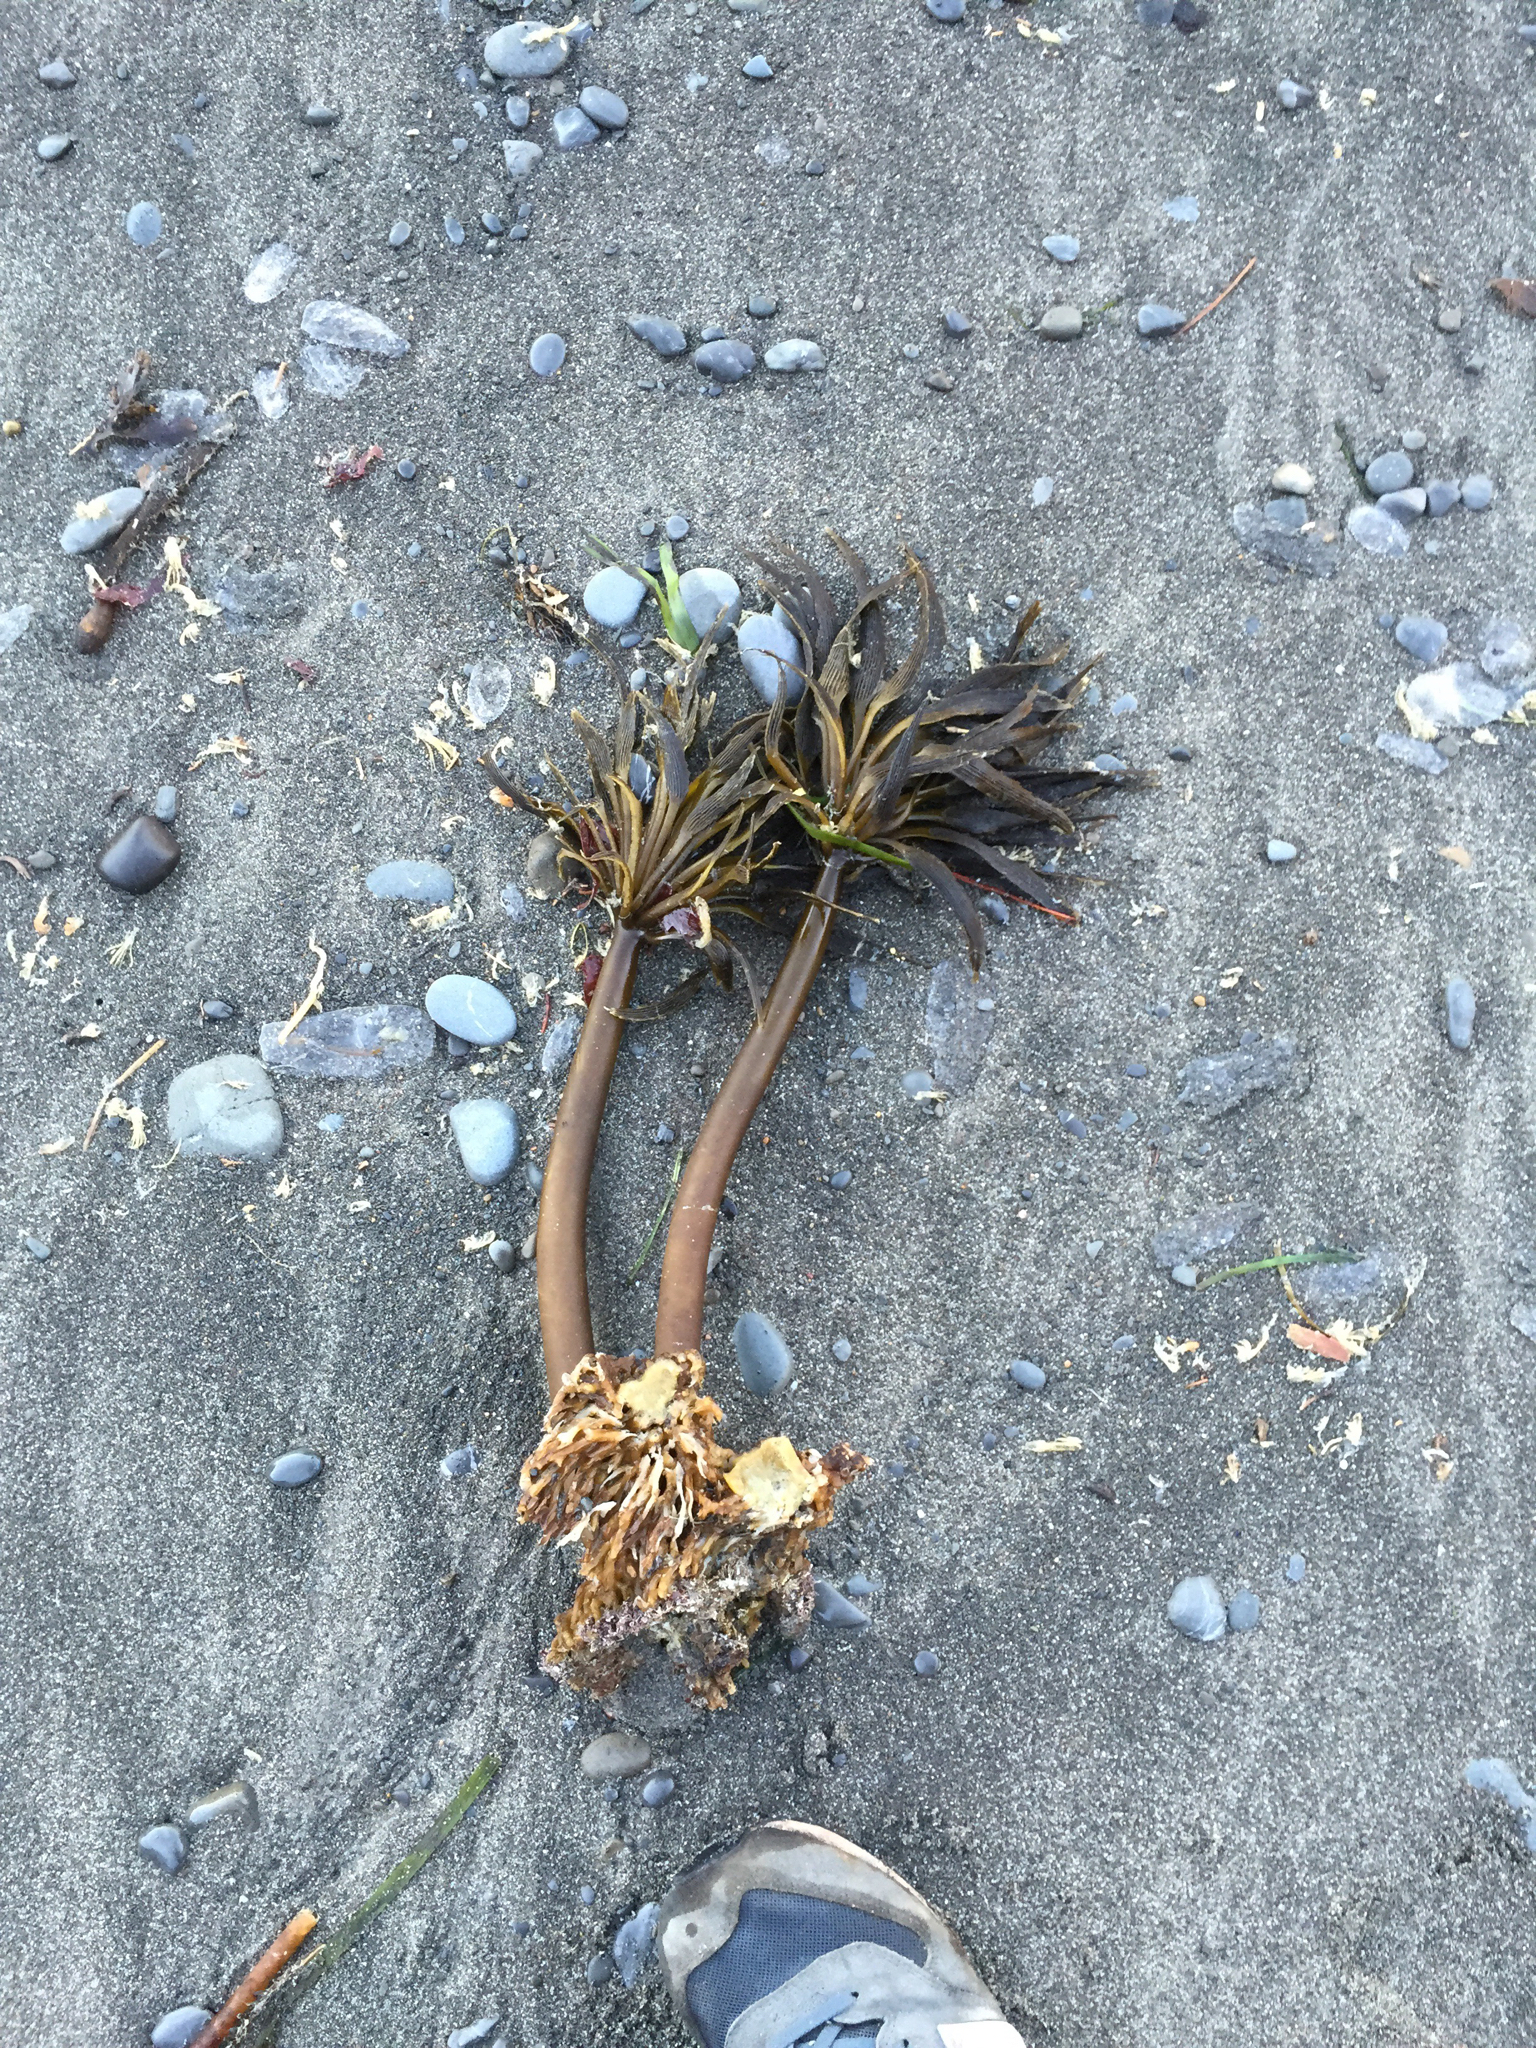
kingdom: Chromista
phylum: Ochrophyta
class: Phaeophyceae
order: Laminariales
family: Laminariaceae
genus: Postelsia
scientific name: Postelsia palmiformis
